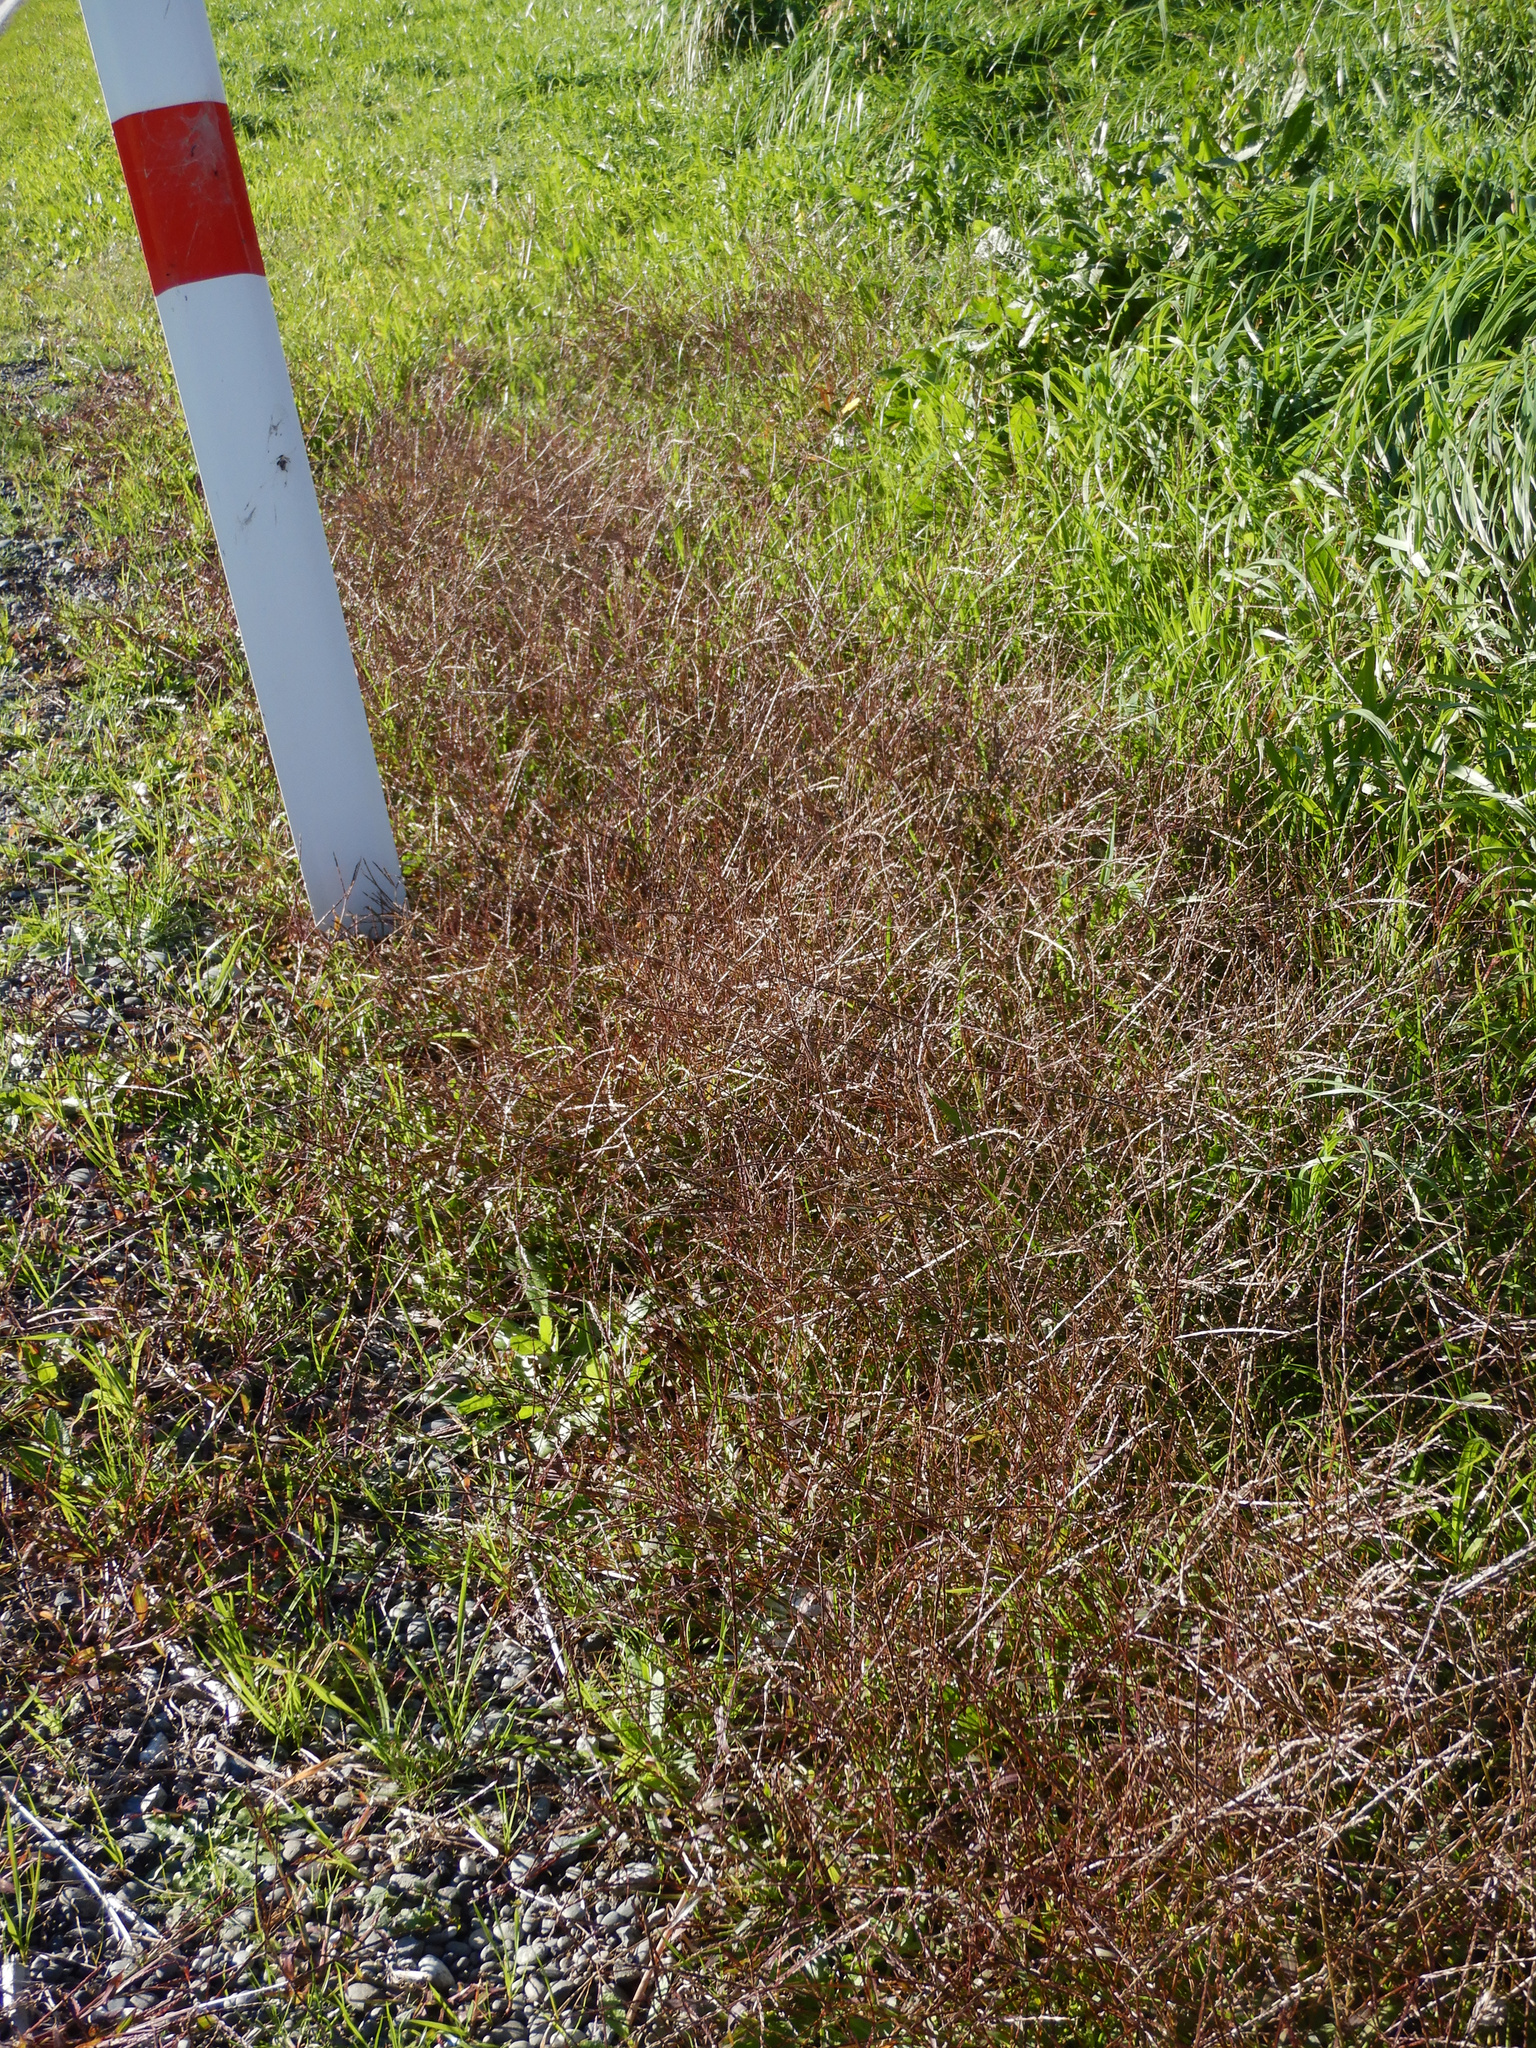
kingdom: Plantae
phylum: Tracheophyta
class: Liliopsida
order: Poales
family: Poaceae
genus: Digitaria
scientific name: Digitaria sanguinalis
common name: Hairy crabgrass
